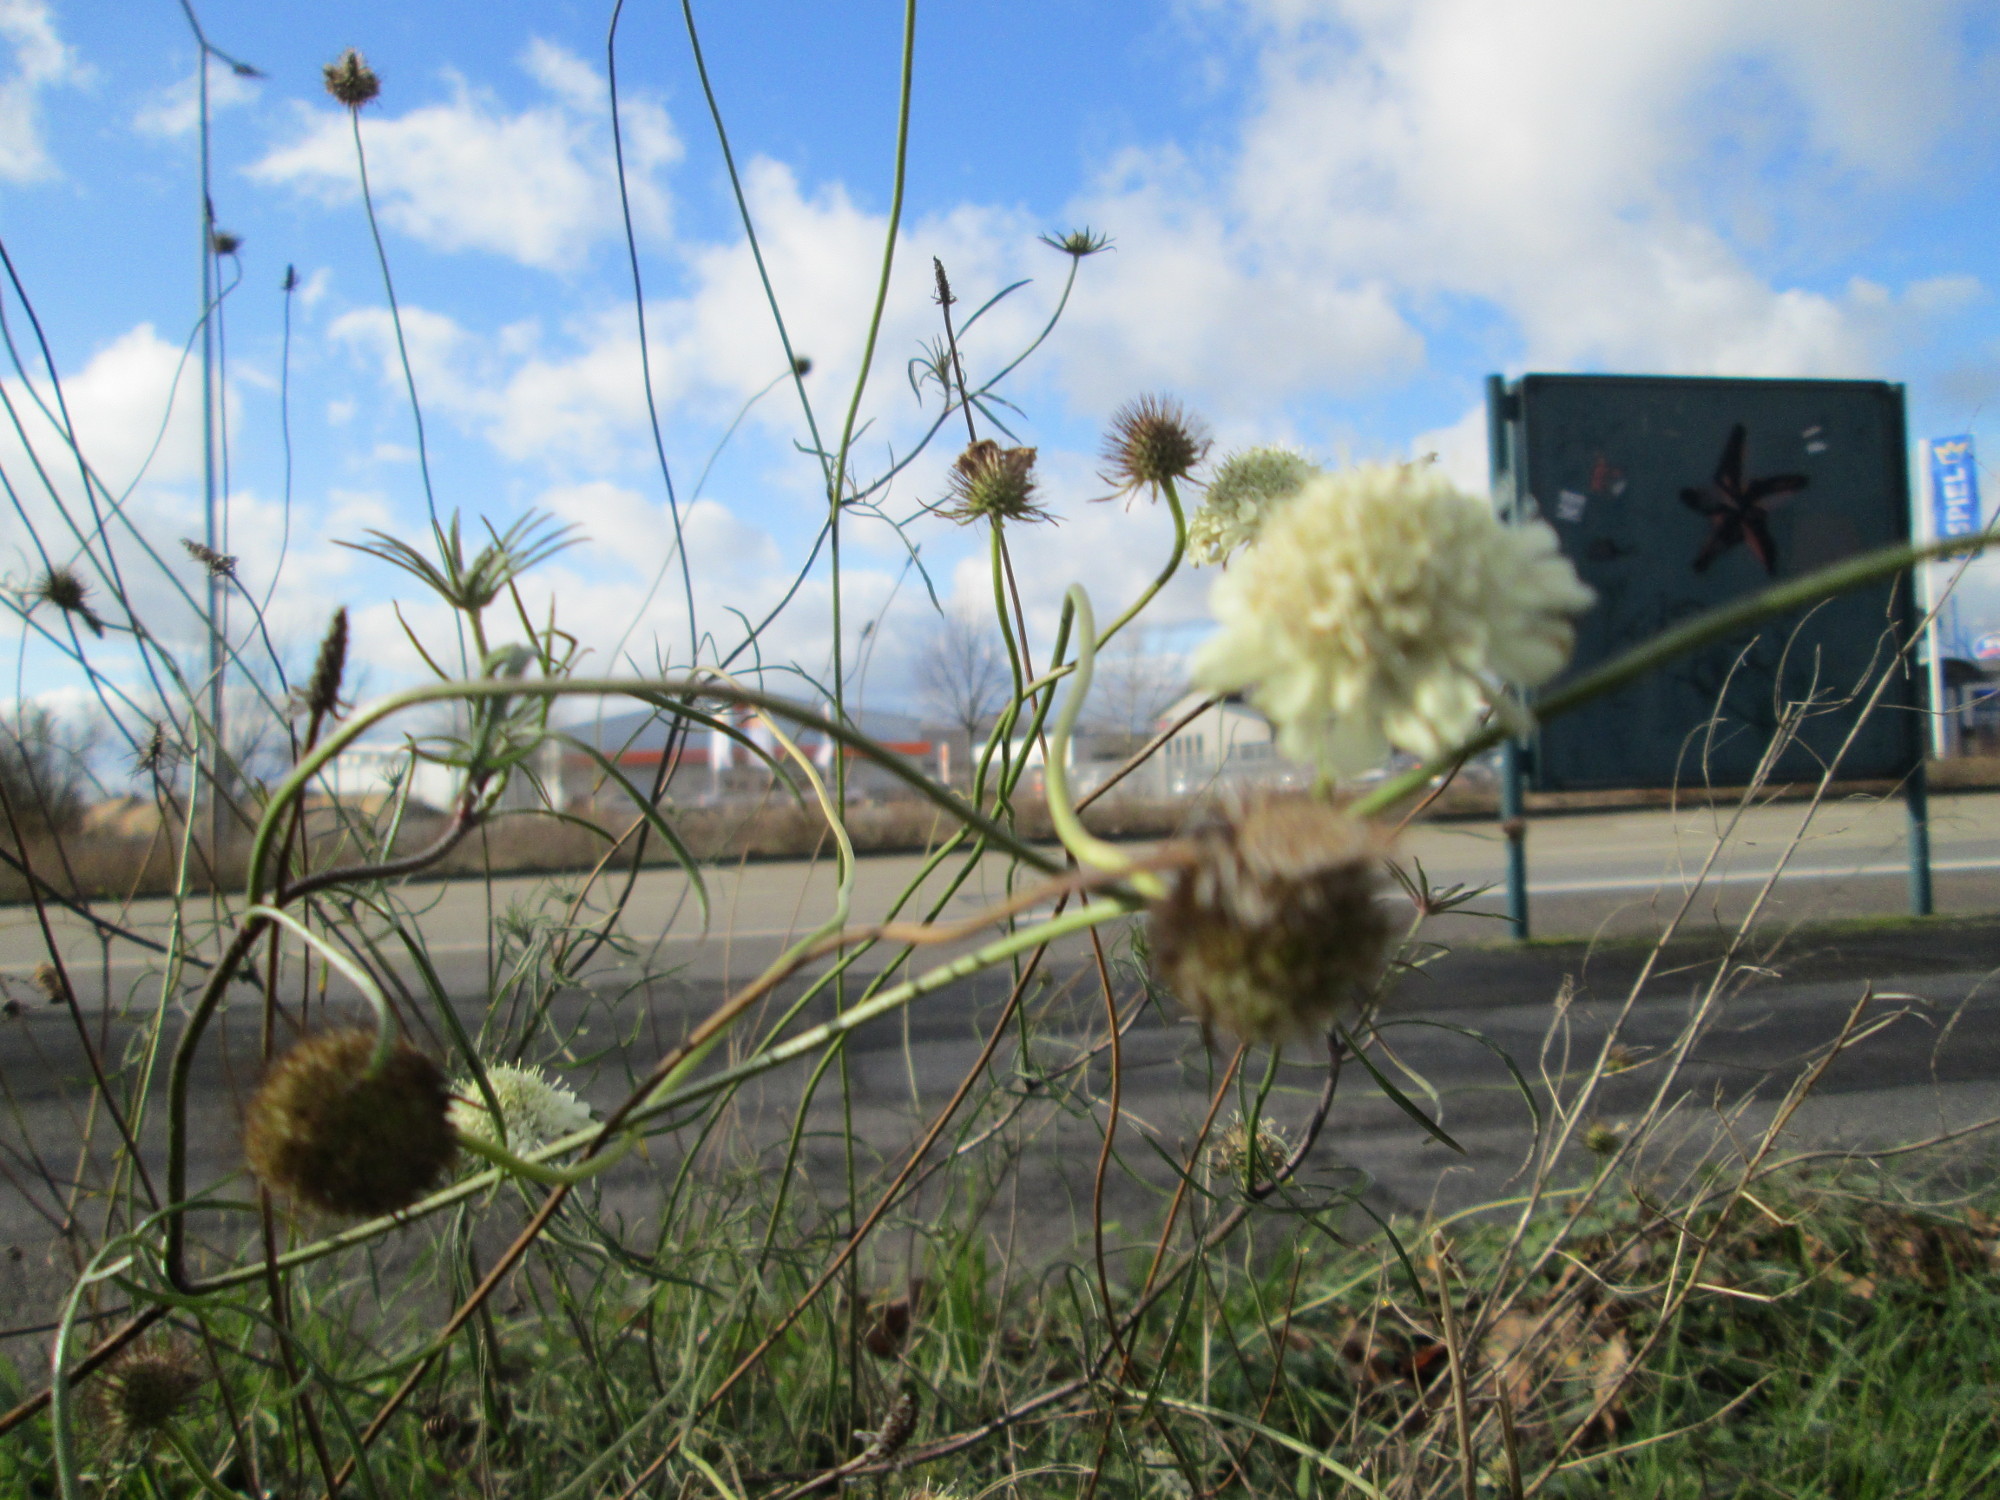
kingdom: Plantae
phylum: Tracheophyta
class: Magnoliopsida
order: Dipsacales
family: Caprifoliaceae
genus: Scabiosa
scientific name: Scabiosa ochroleuca
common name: Cream pincushions
